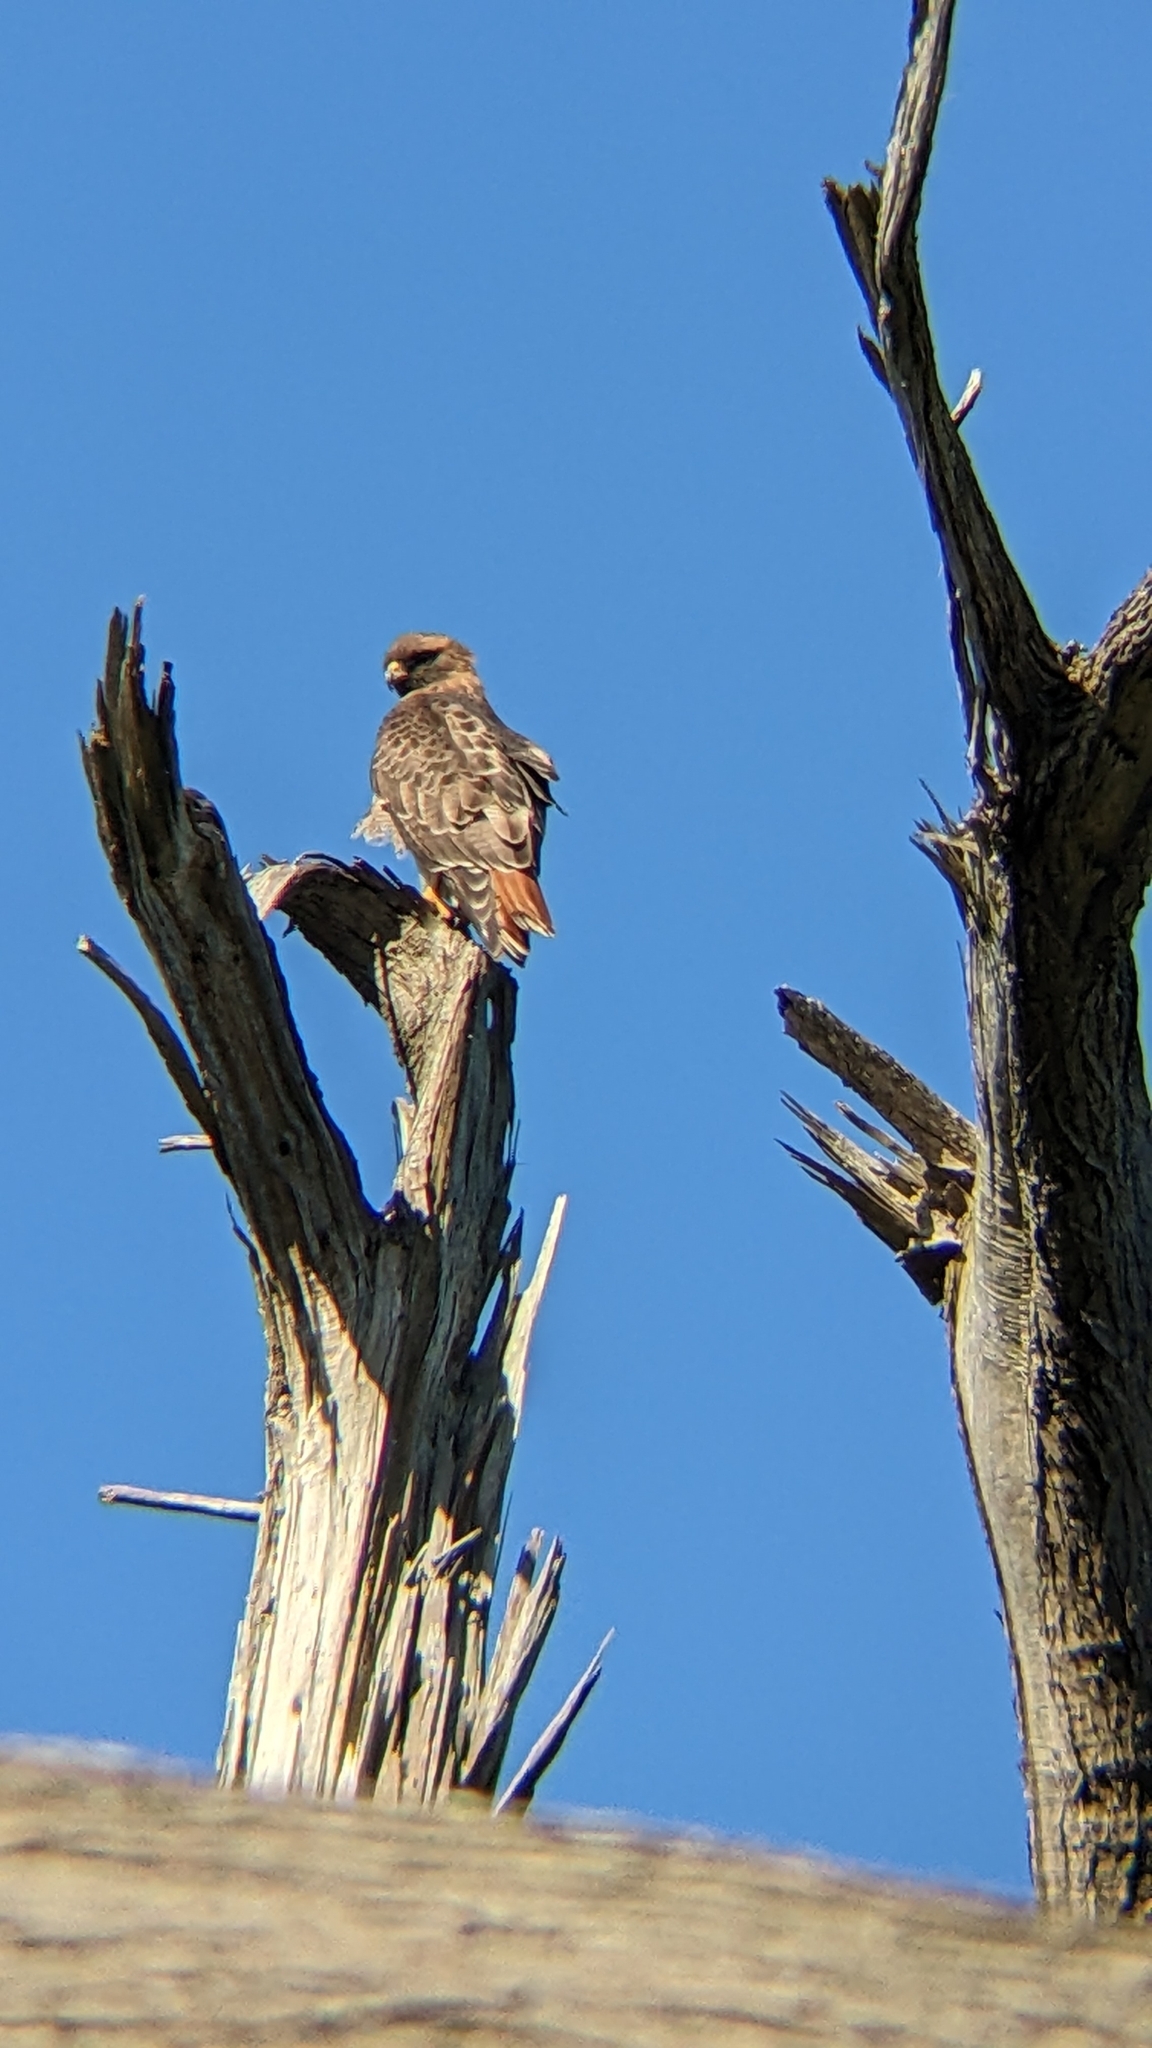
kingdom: Animalia
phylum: Chordata
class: Aves
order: Accipitriformes
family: Accipitridae
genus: Buteo
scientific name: Buteo jamaicensis
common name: Red-tailed hawk
